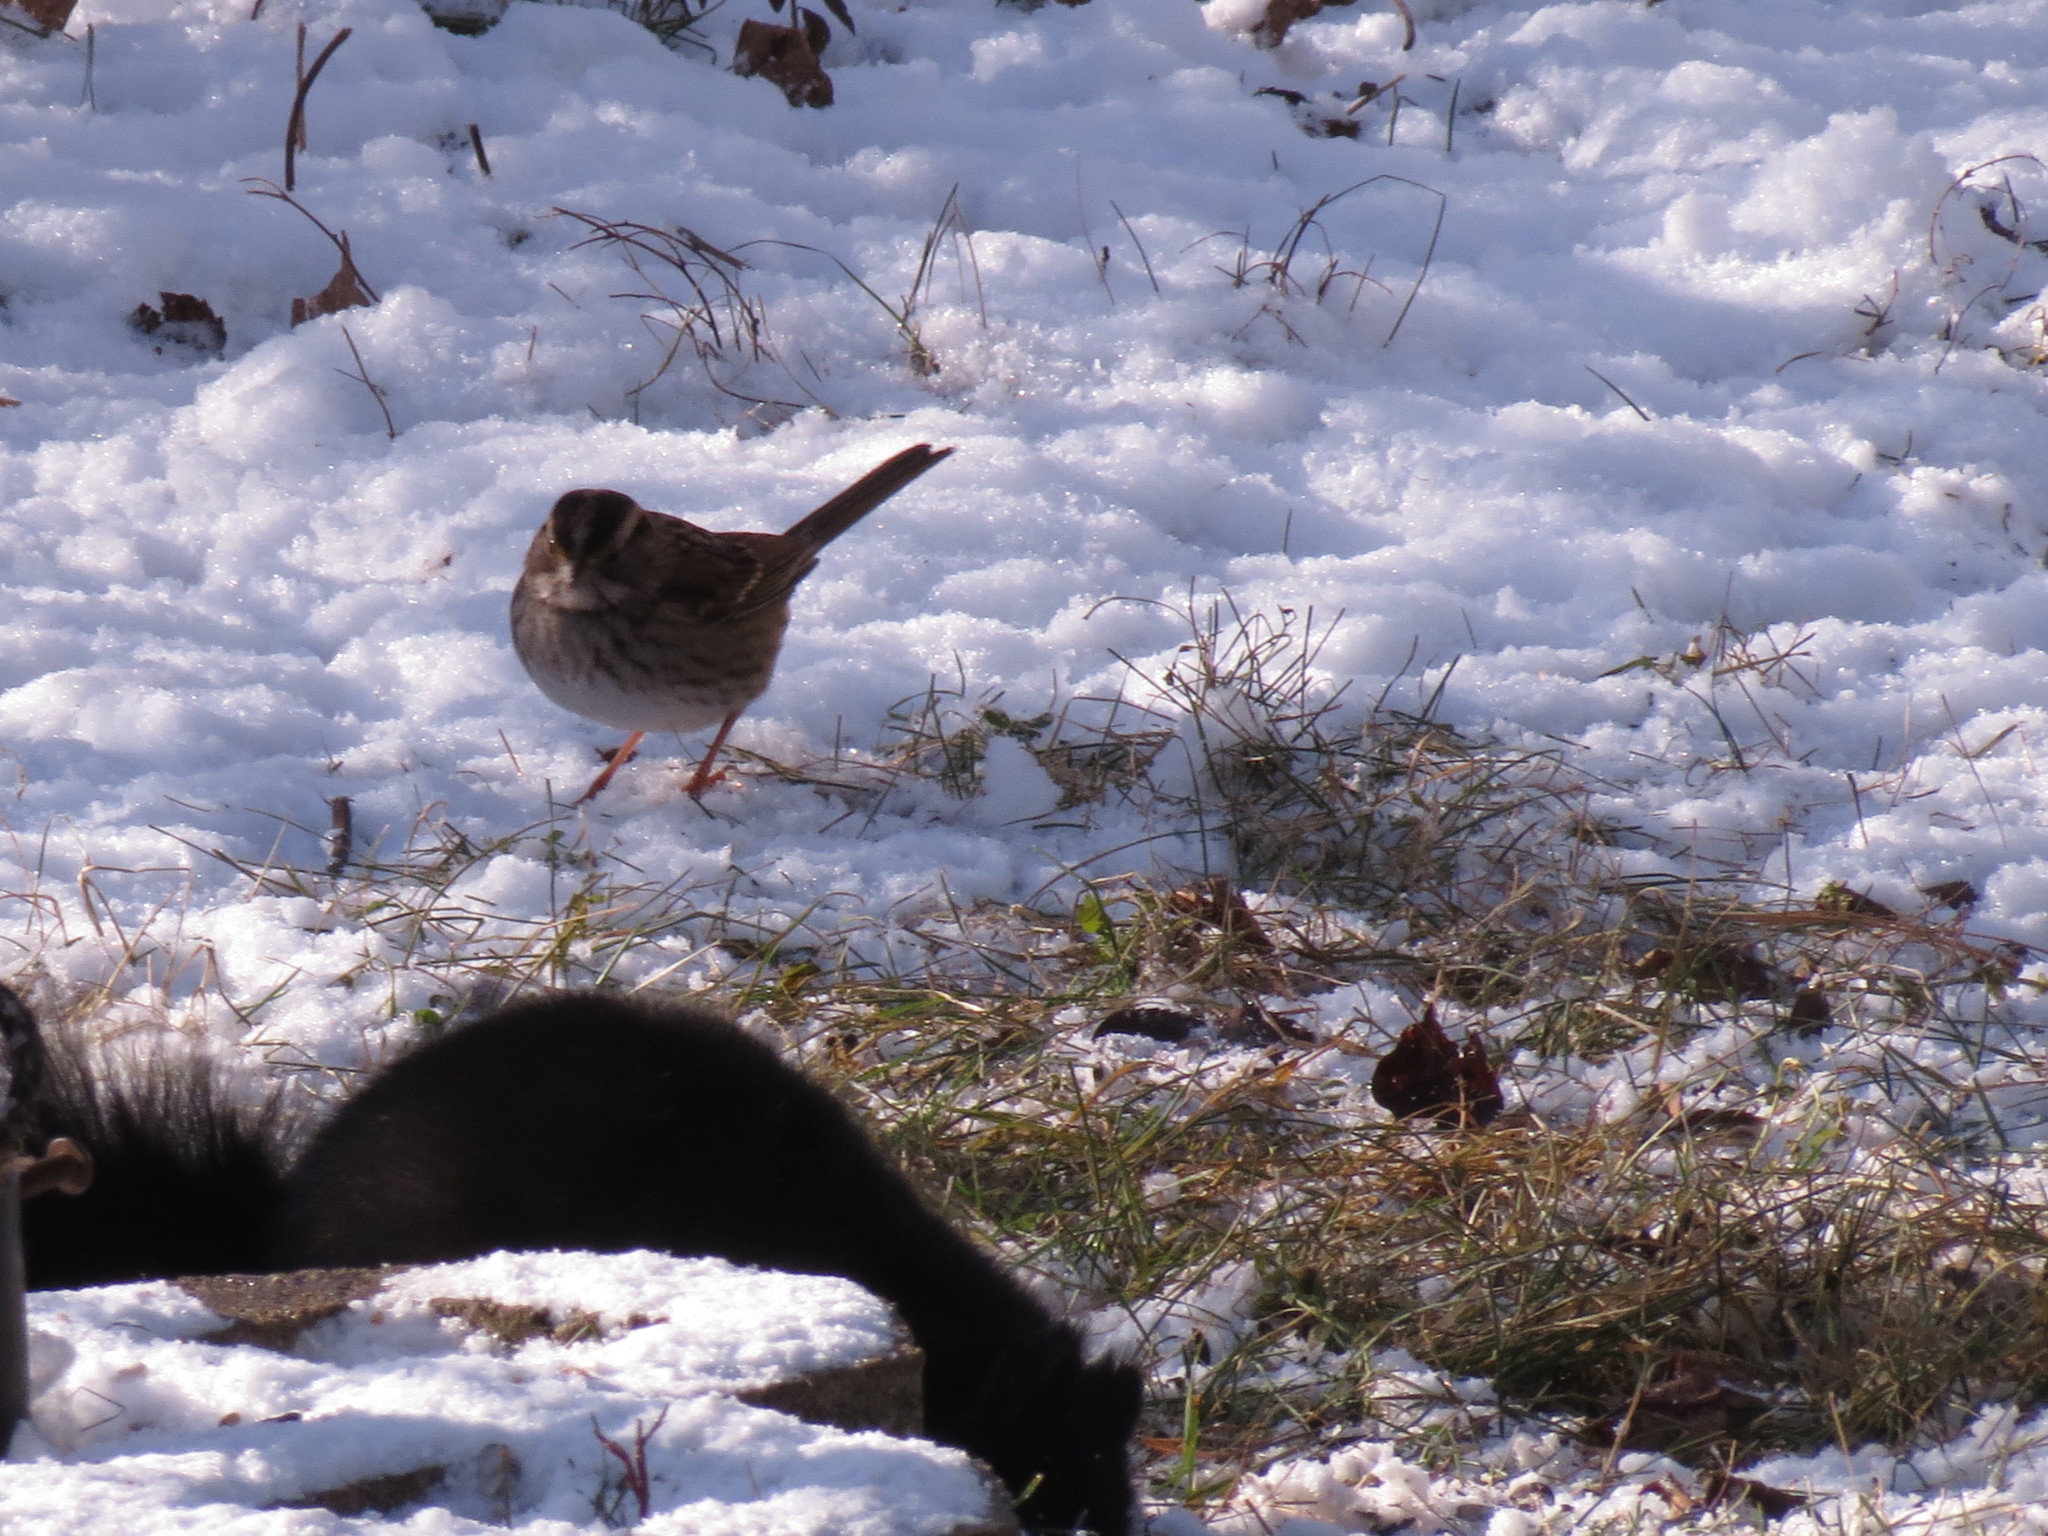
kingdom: Animalia
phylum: Chordata
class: Aves
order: Passeriformes
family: Passerellidae
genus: Zonotrichia
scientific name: Zonotrichia albicollis
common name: White-throated sparrow
